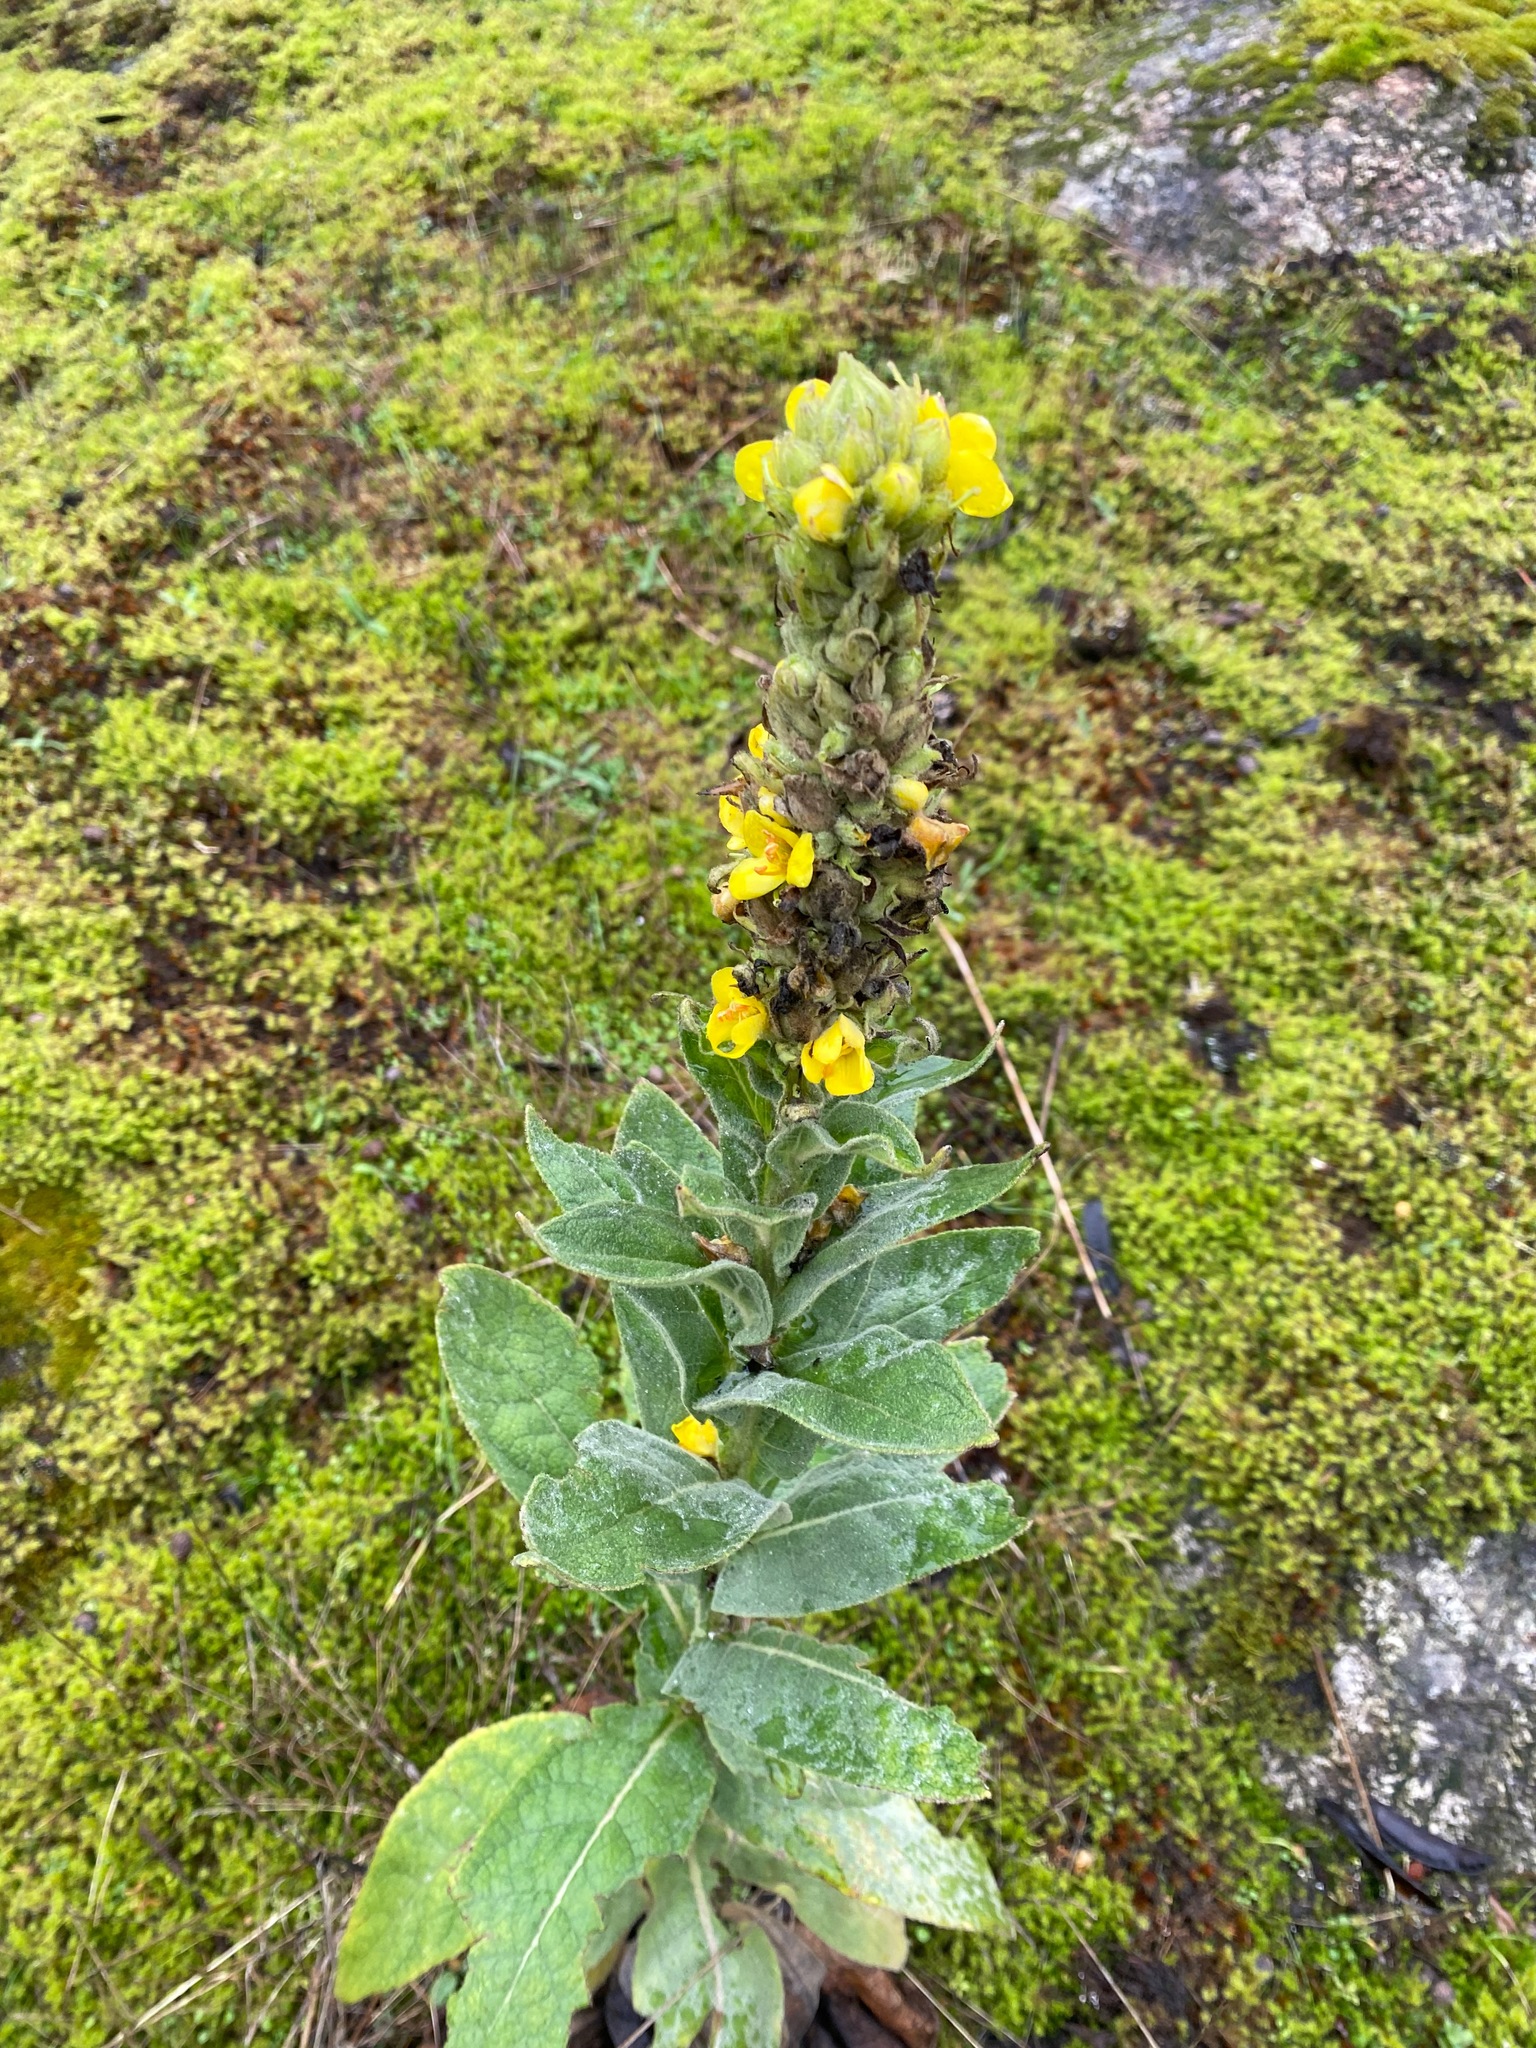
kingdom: Plantae
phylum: Tracheophyta
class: Magnoliopsida
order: Lamiales
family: Scrophulariaceae
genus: Verbascum
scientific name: Verbascum thapsus
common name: Common mullein
